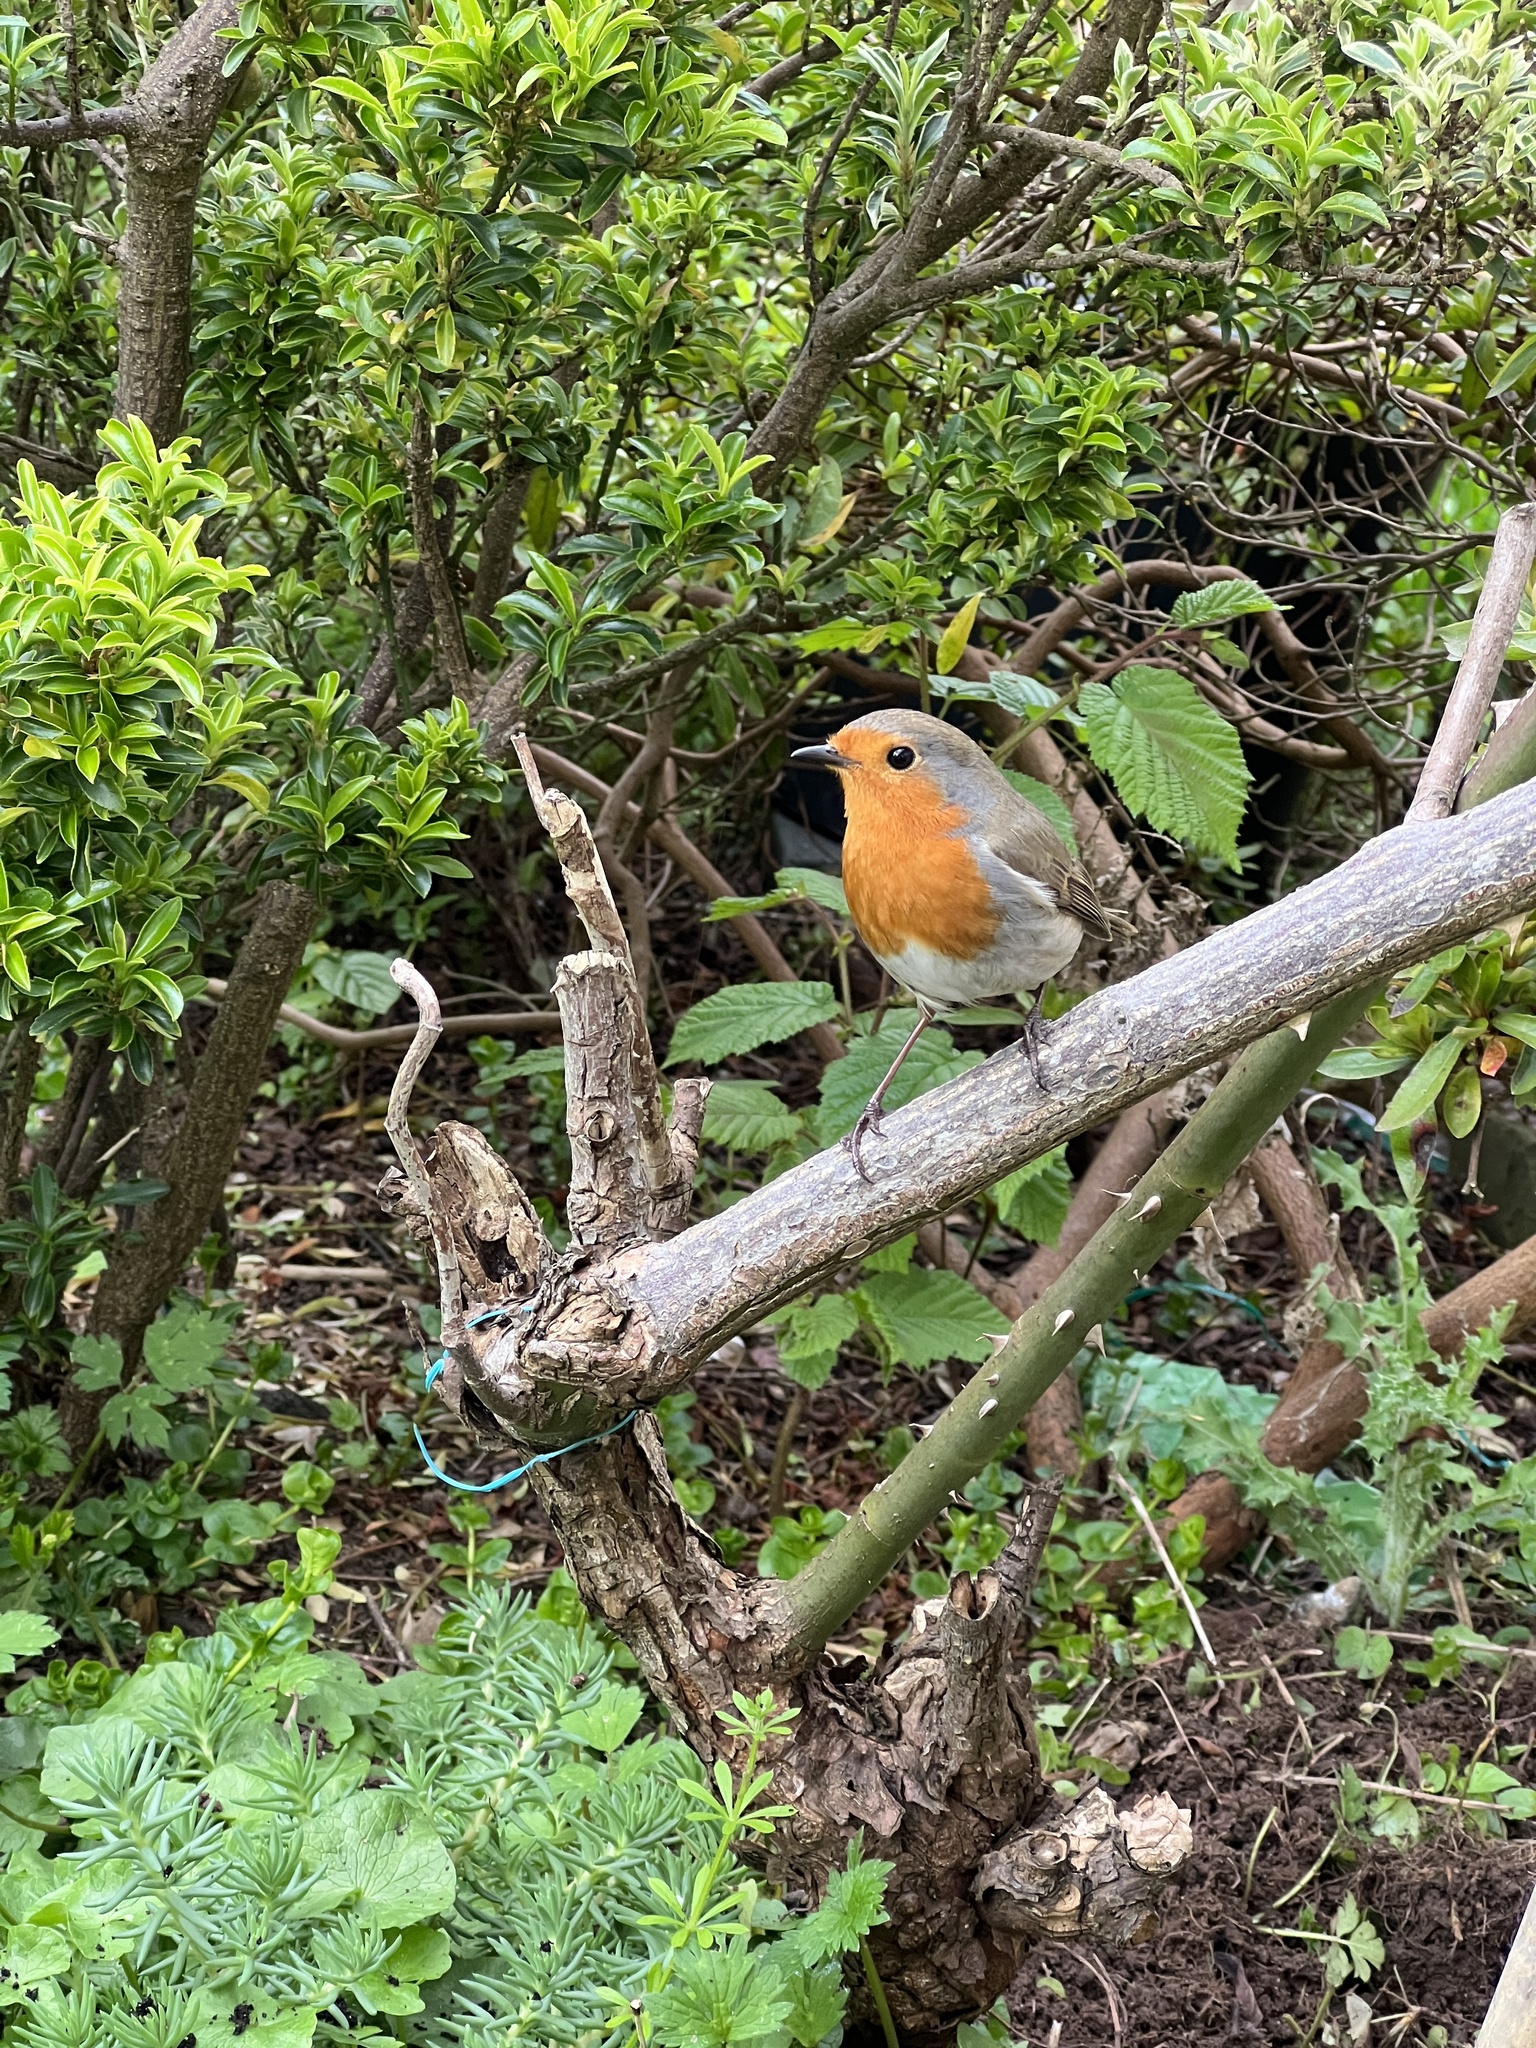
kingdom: Animalia
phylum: Chordata
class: Aves
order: Passeriformes
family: Muscicapidae
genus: Erithacus
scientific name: Erithacus rubecula
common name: European robin
